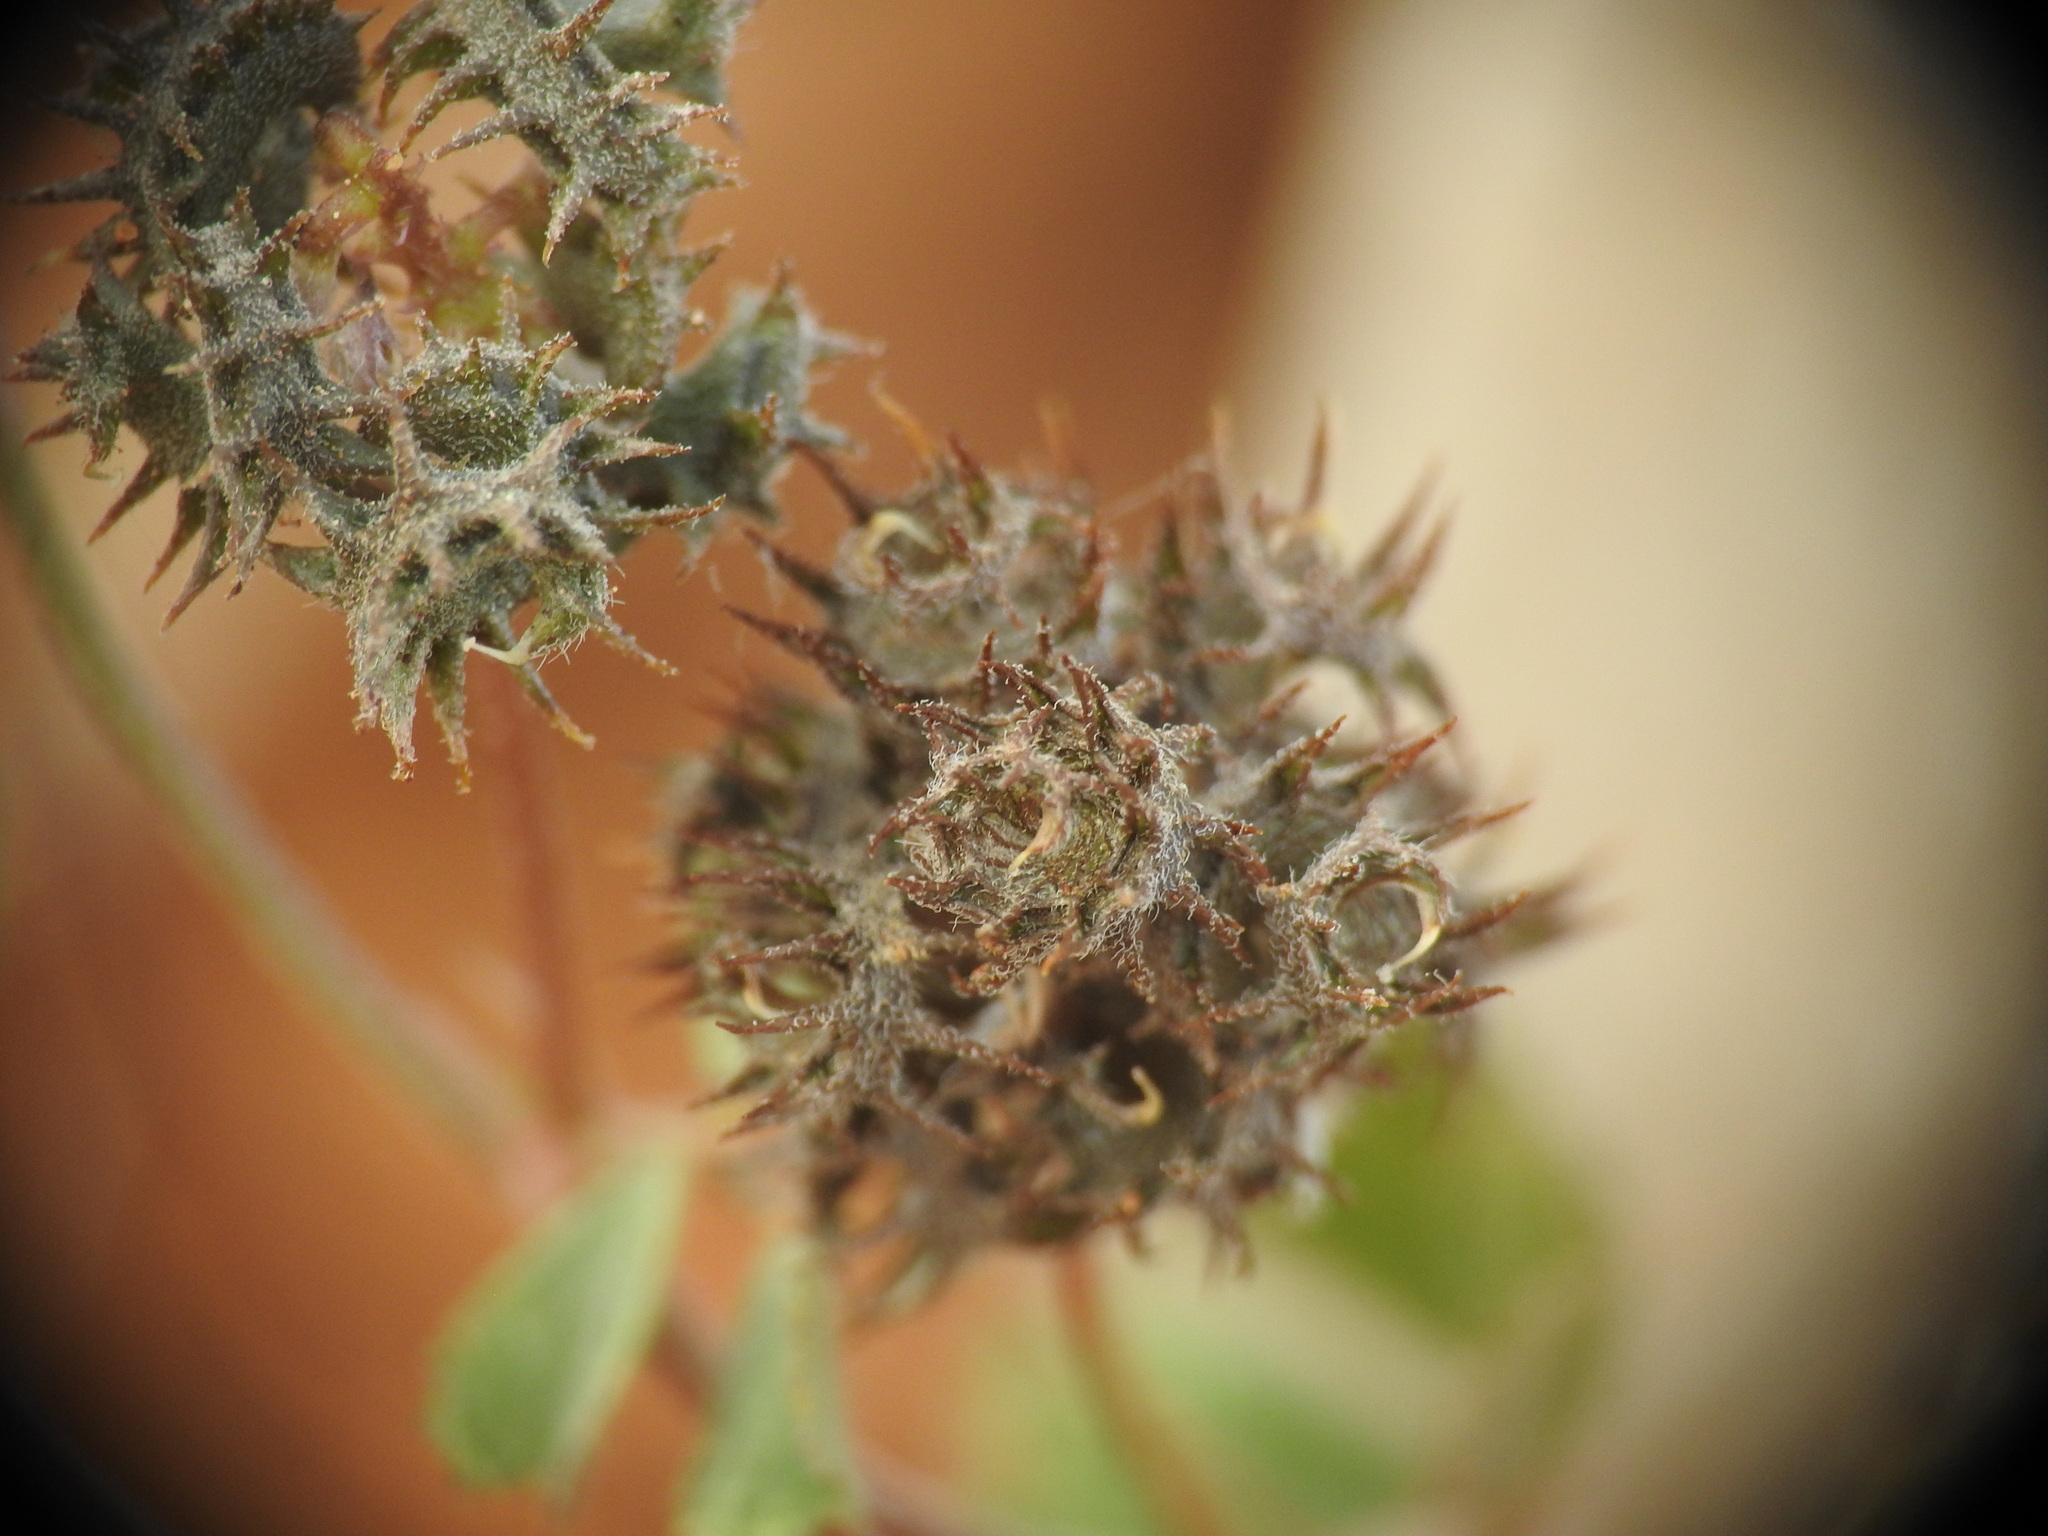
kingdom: Plantae
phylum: Tracheophyta
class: Magnoliopsida
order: Fabales
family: Fabaceae
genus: Medicago
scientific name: Medicago coronata
